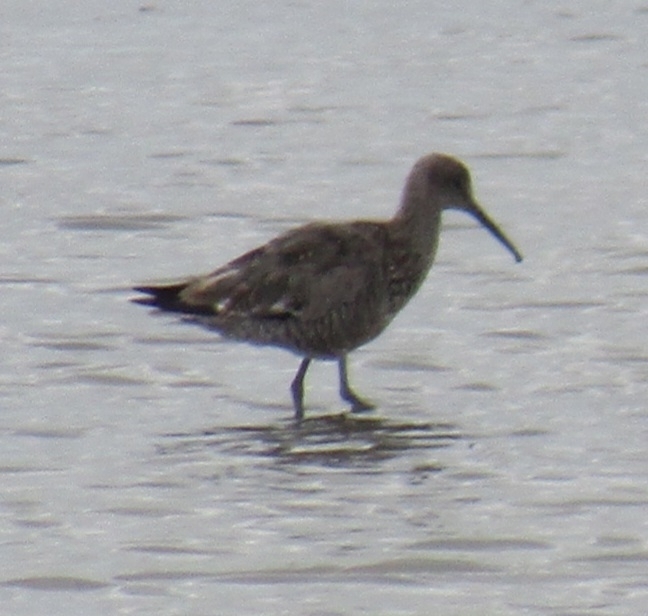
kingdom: Animalia
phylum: Chordata
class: Aves
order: Charadriiformes
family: Scolopacidae
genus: Tringa
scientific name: Tringa semipalmata
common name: Willet
